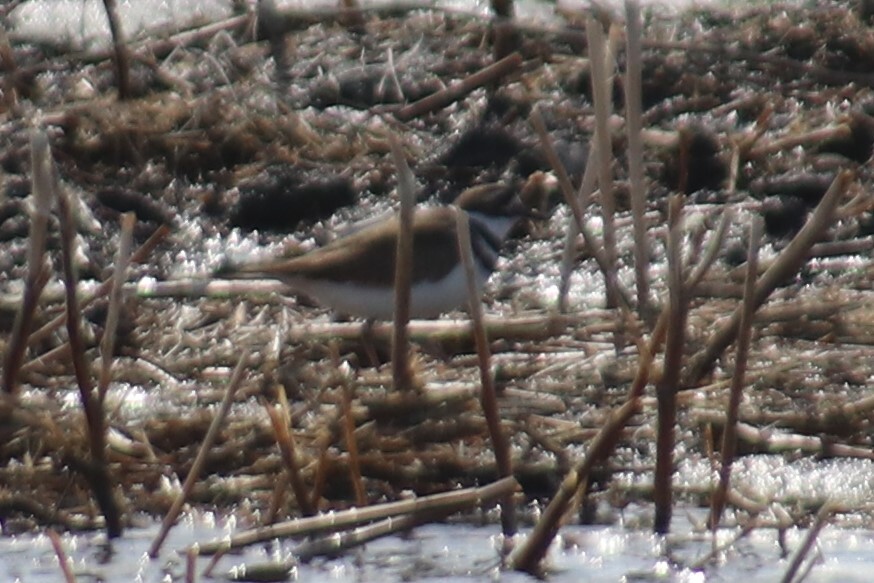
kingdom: Animalia
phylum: Chordata
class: Aves
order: Charadriiformes
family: Charadriidae
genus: Charadrius
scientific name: Charadrius vociferus
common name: Killdeer
